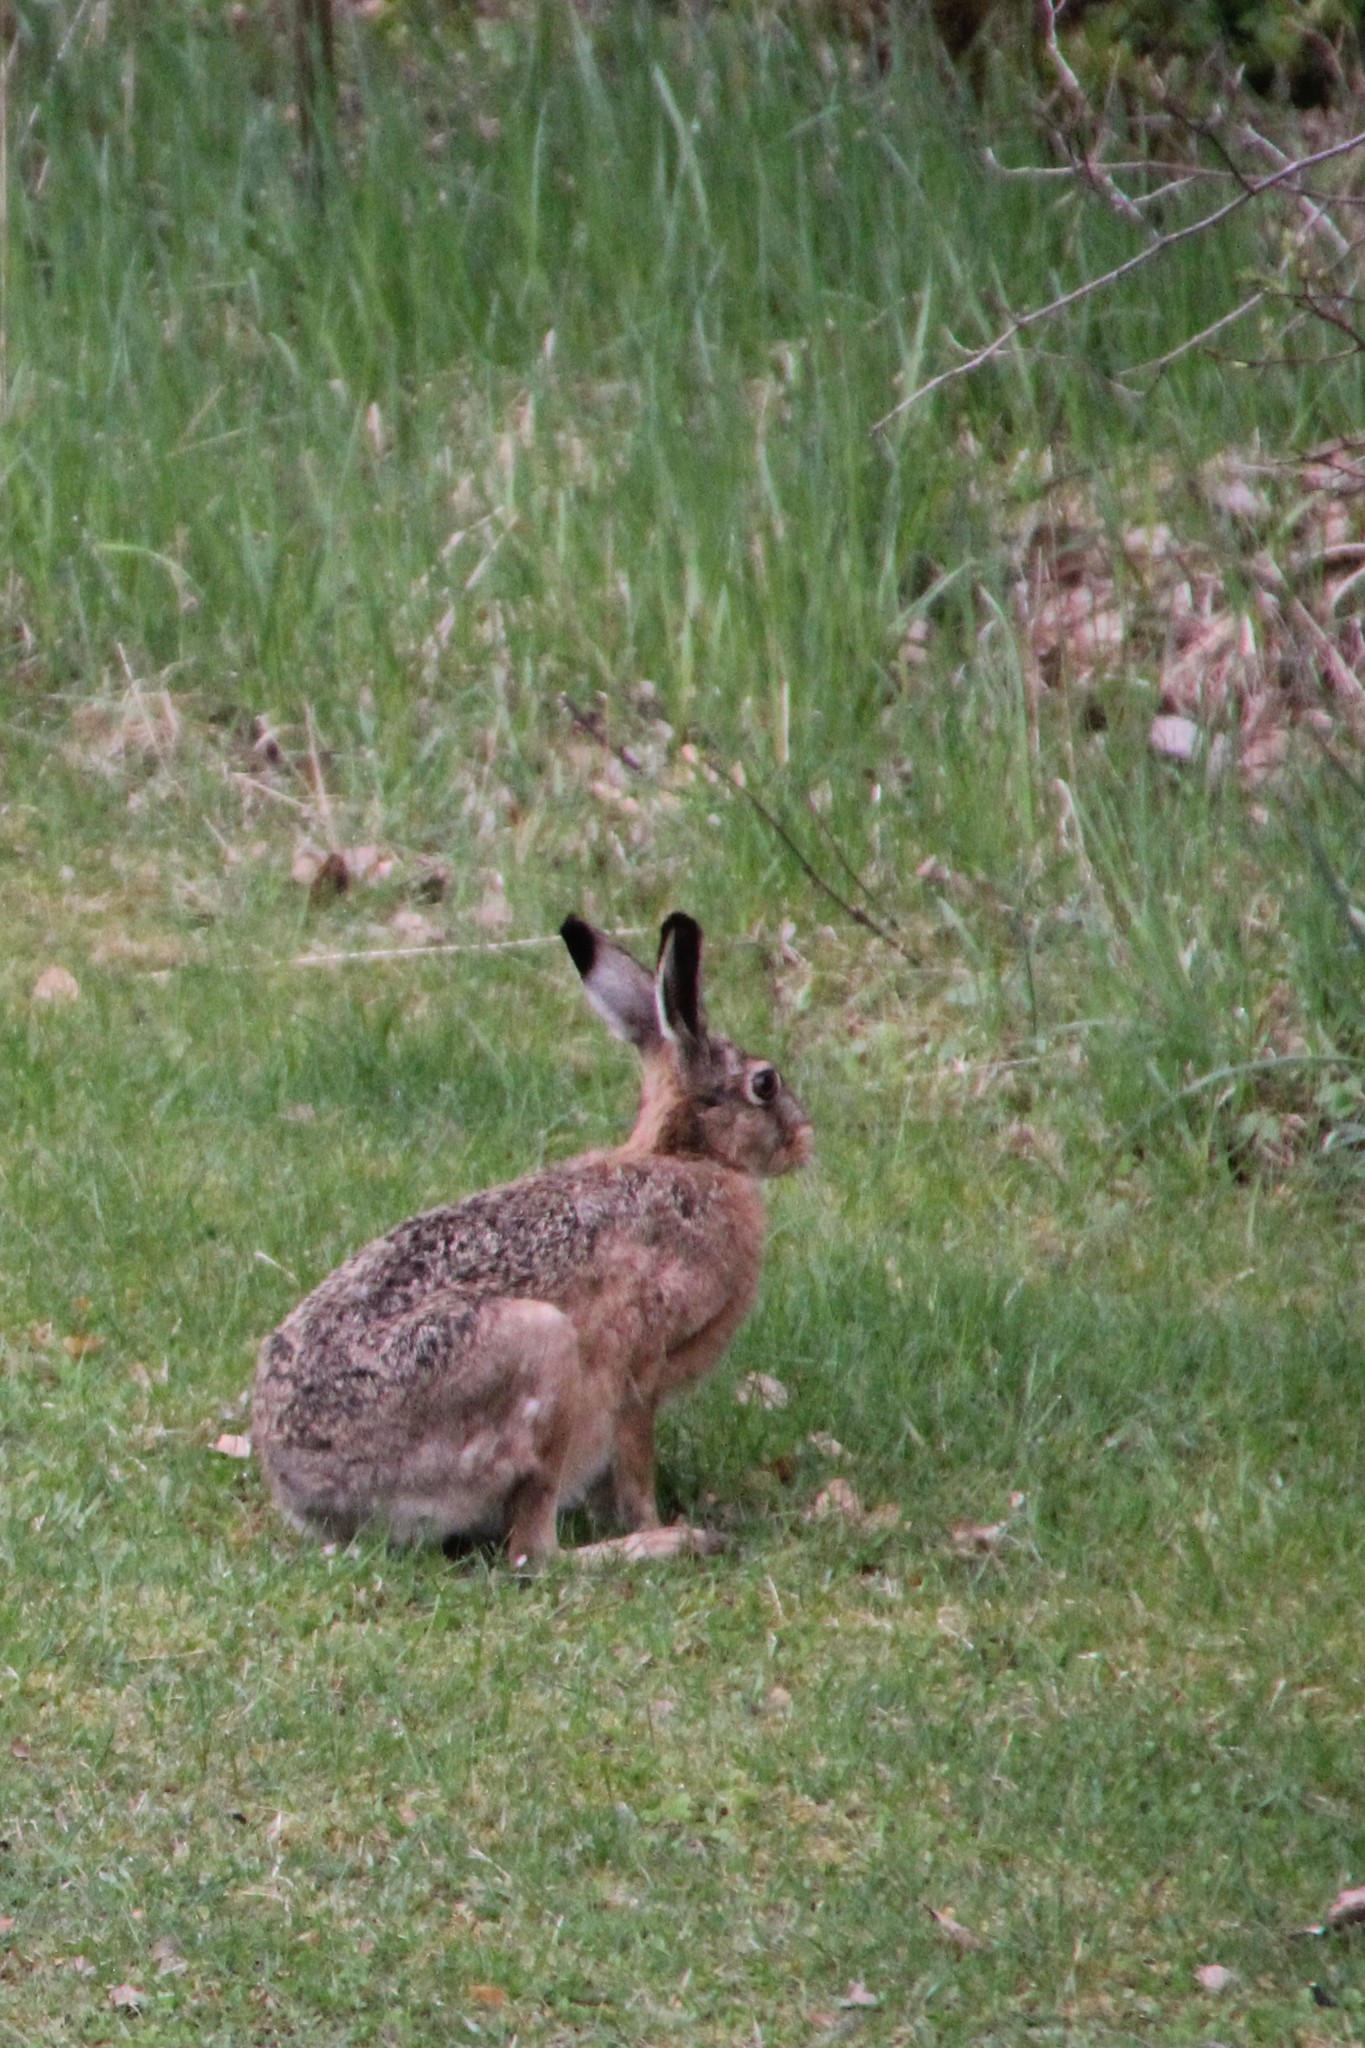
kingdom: Animalia
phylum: Chordata
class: Mammalia
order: Lagomorpha
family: Leporidae
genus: Lepus
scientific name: Lepus europaeus
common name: European hare
